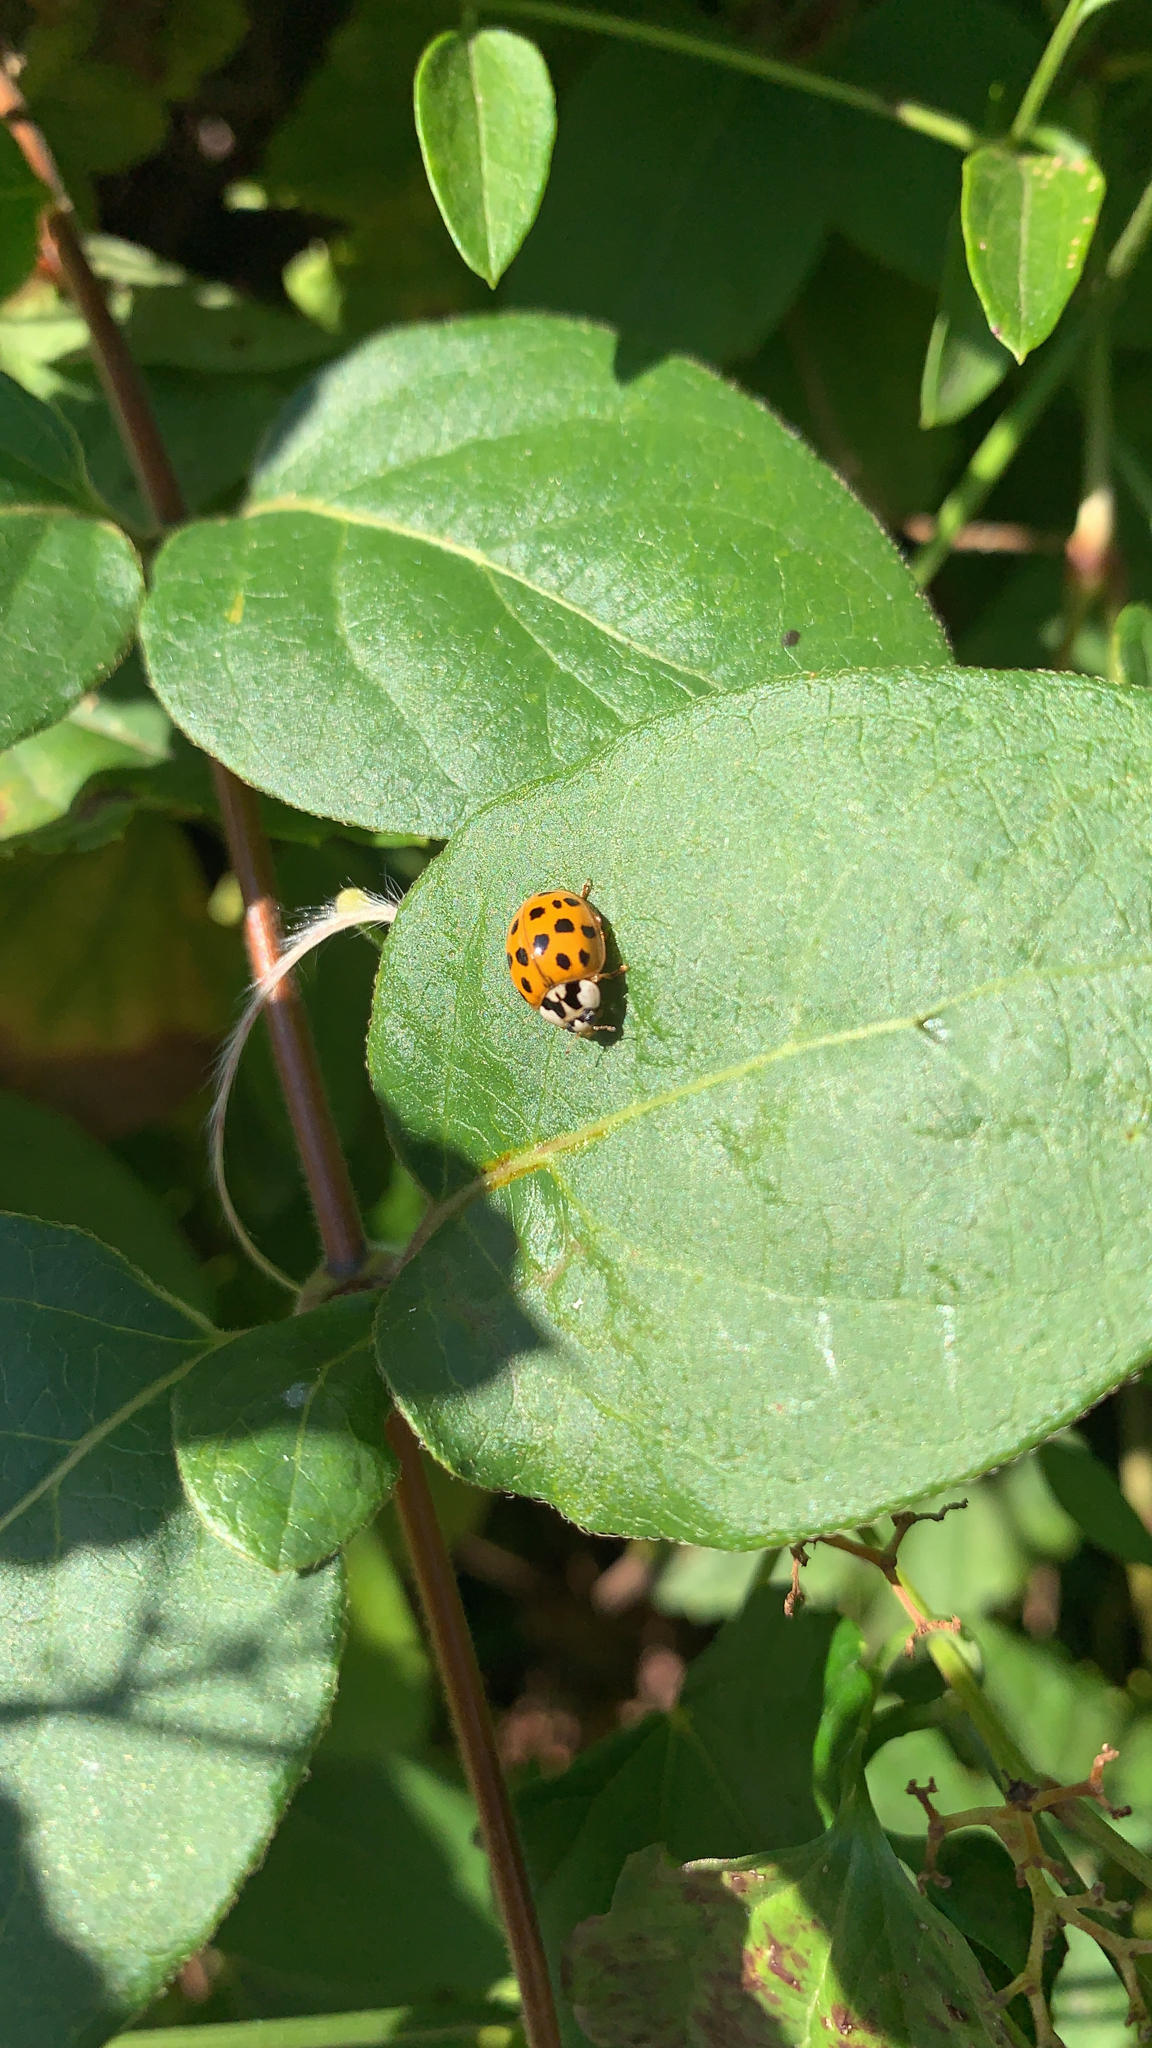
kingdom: Animalia
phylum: Arthropoda
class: Insecta
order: Coleoptera
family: Coccinellidae
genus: Harmonia
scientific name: Harmonia axyridis
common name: Harlequin ladybird
